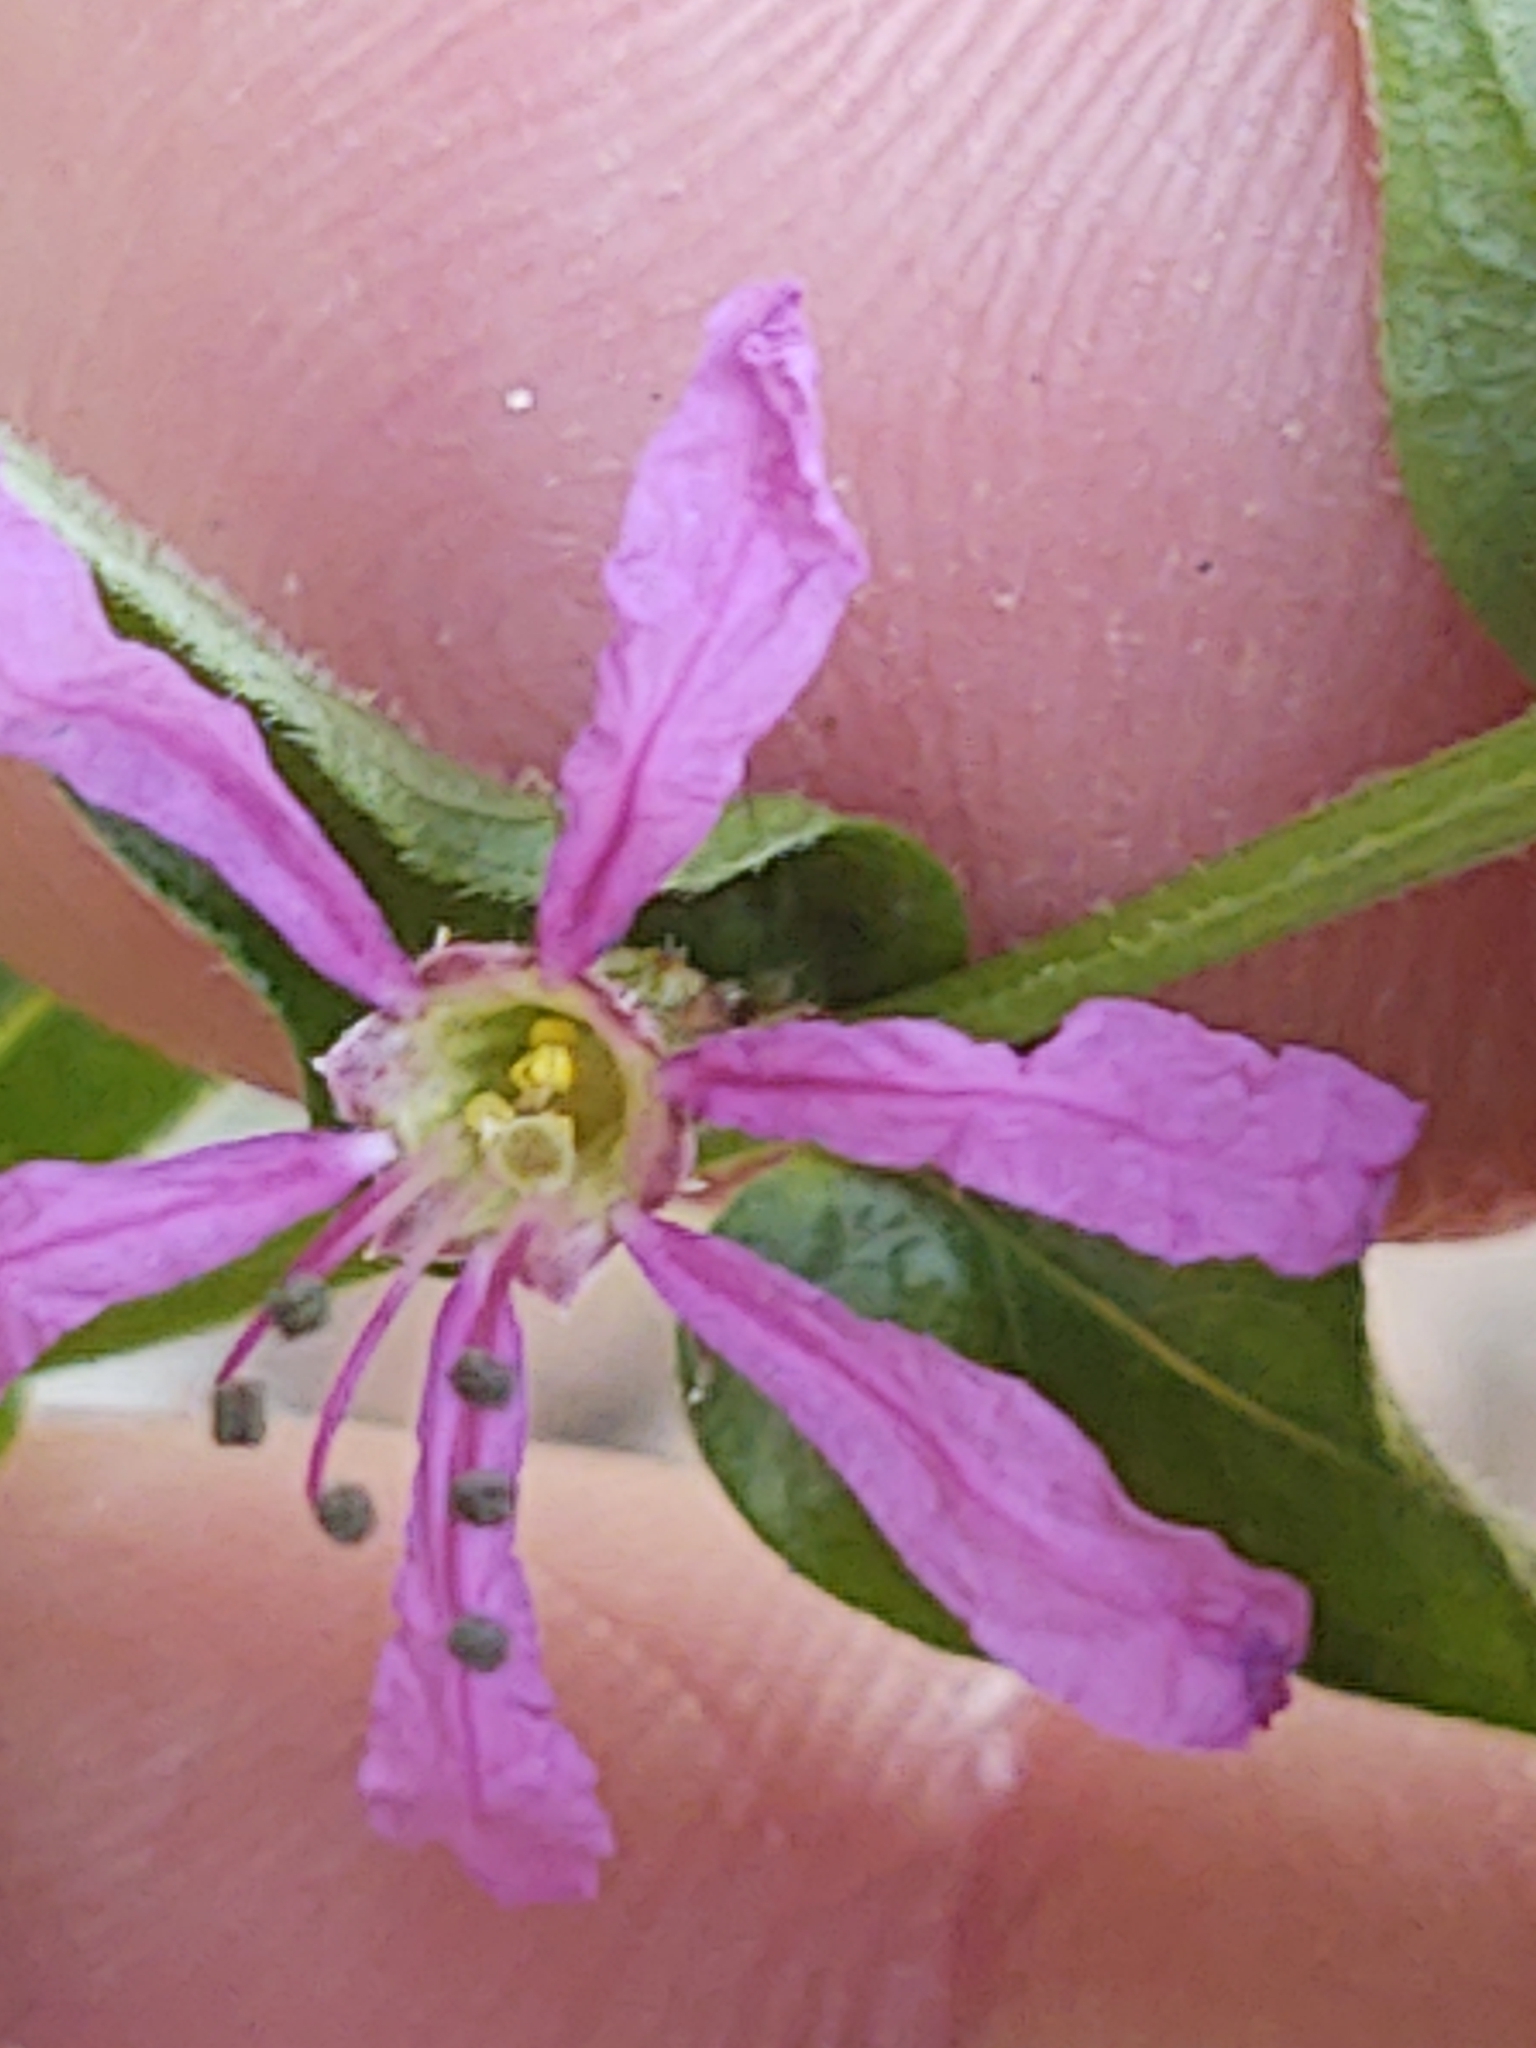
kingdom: Plantae
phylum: Tracheophyta
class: Magnoliopsida
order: Myrtales
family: Lythraceae
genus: Lythrum
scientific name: Lythrum salicaria
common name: Purple loosestrife
